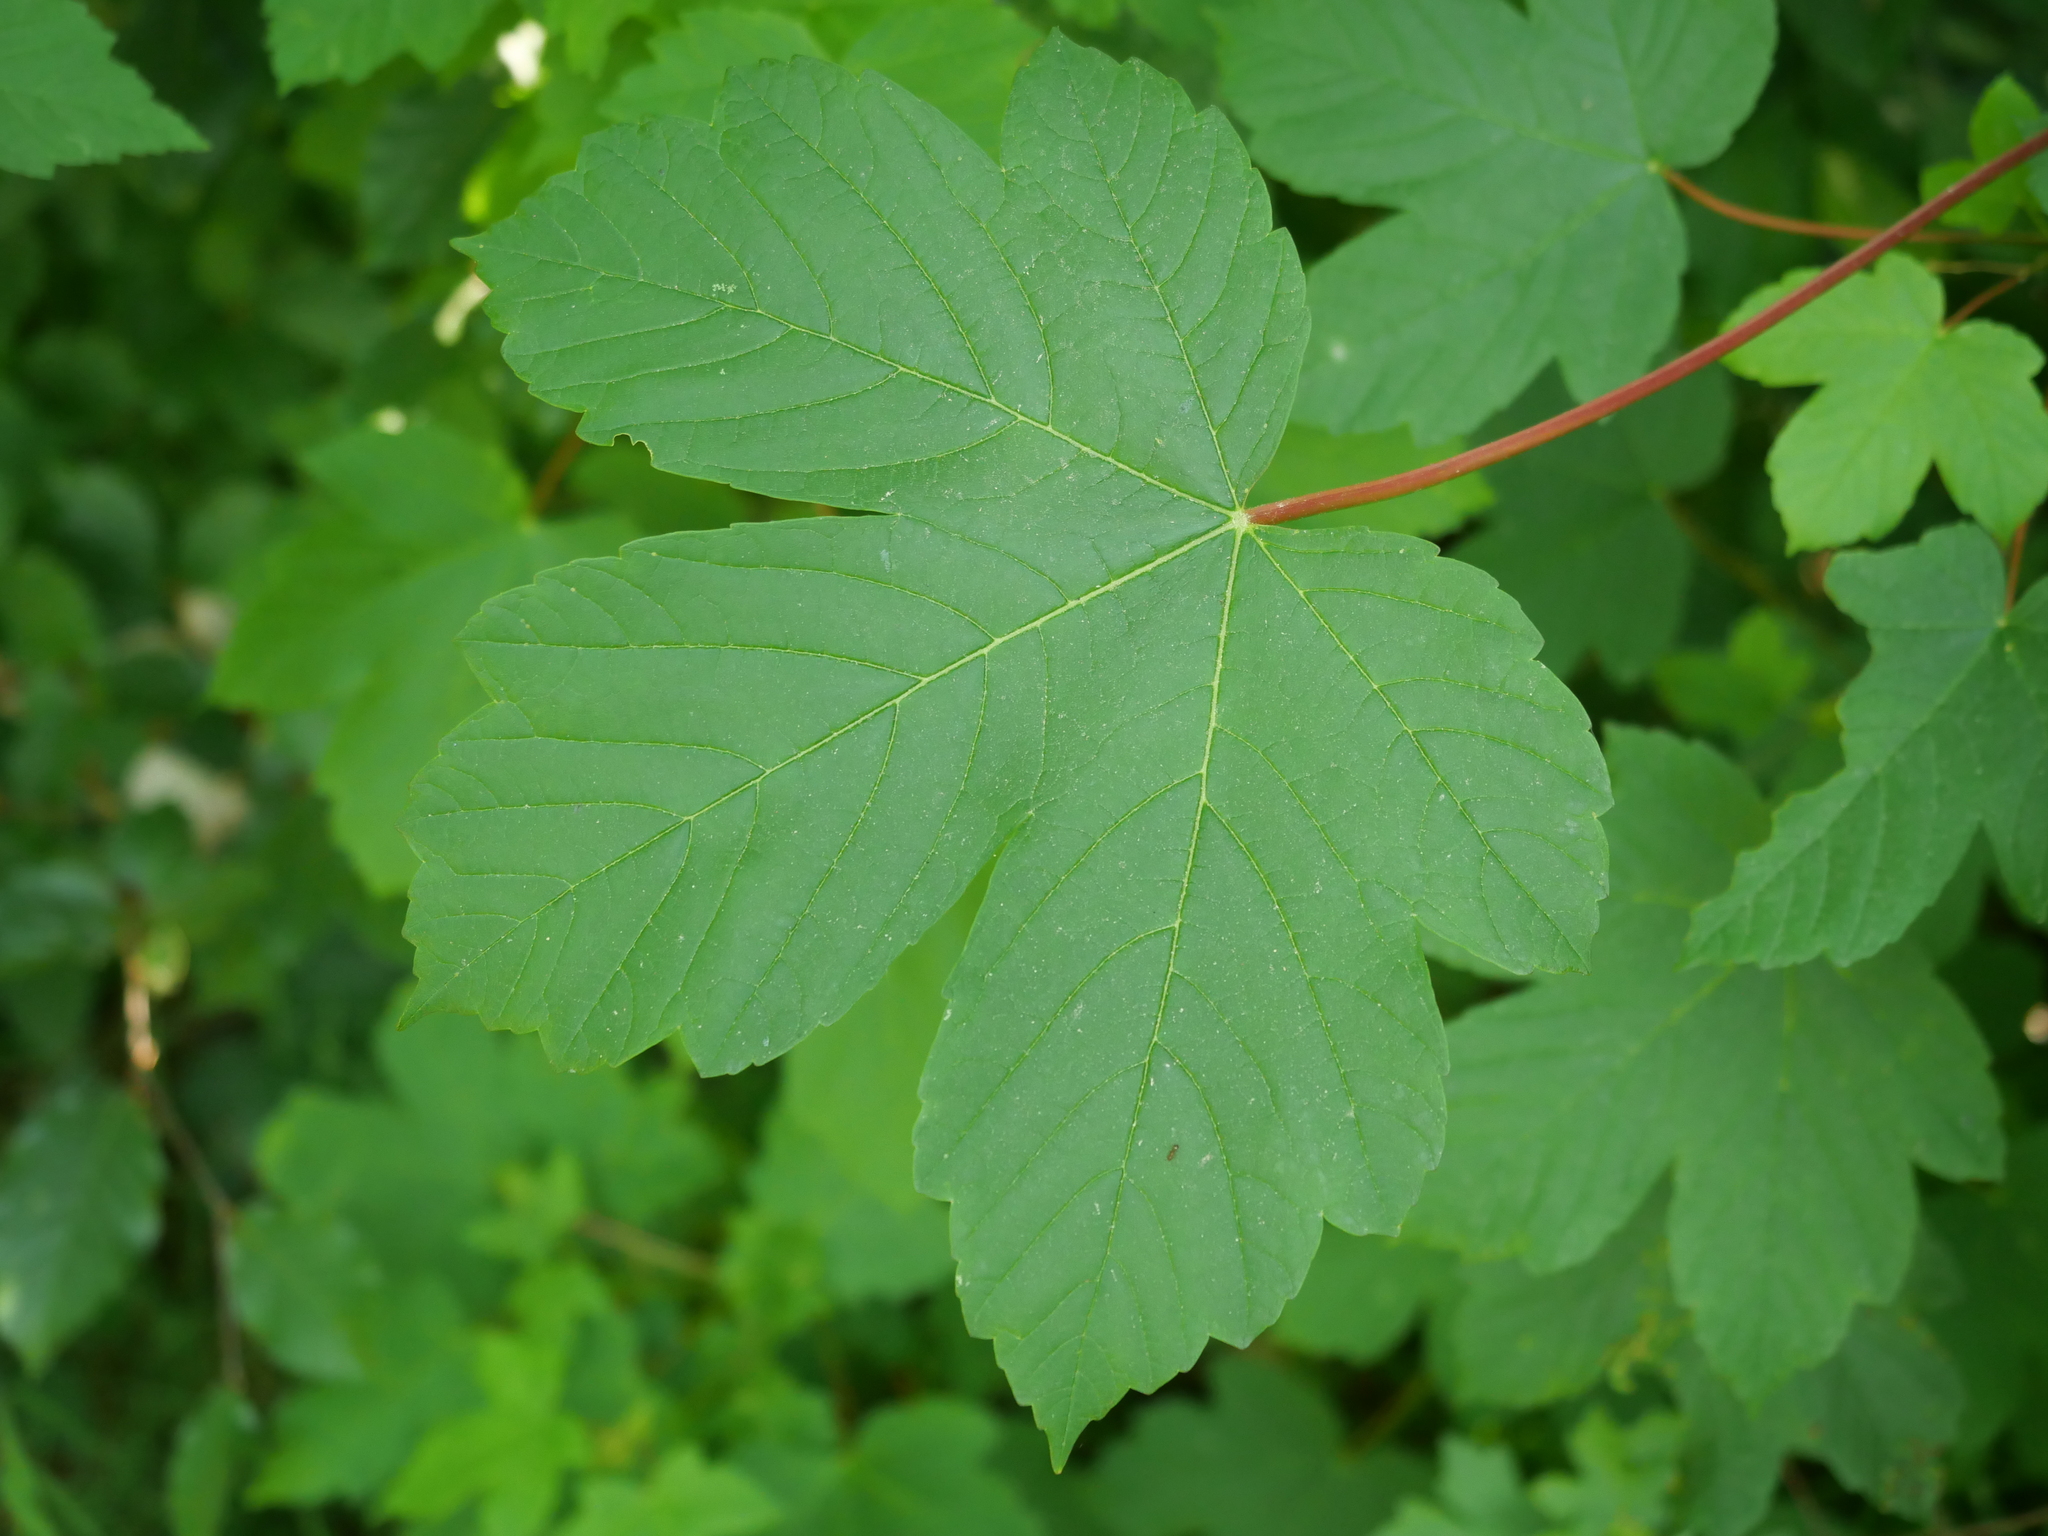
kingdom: Plantae
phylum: Tracheophyta
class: Magnoliopsida
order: Sapindales
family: Sapindaceae
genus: Acer
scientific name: Acer pseudoplatanus
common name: Sycamore
